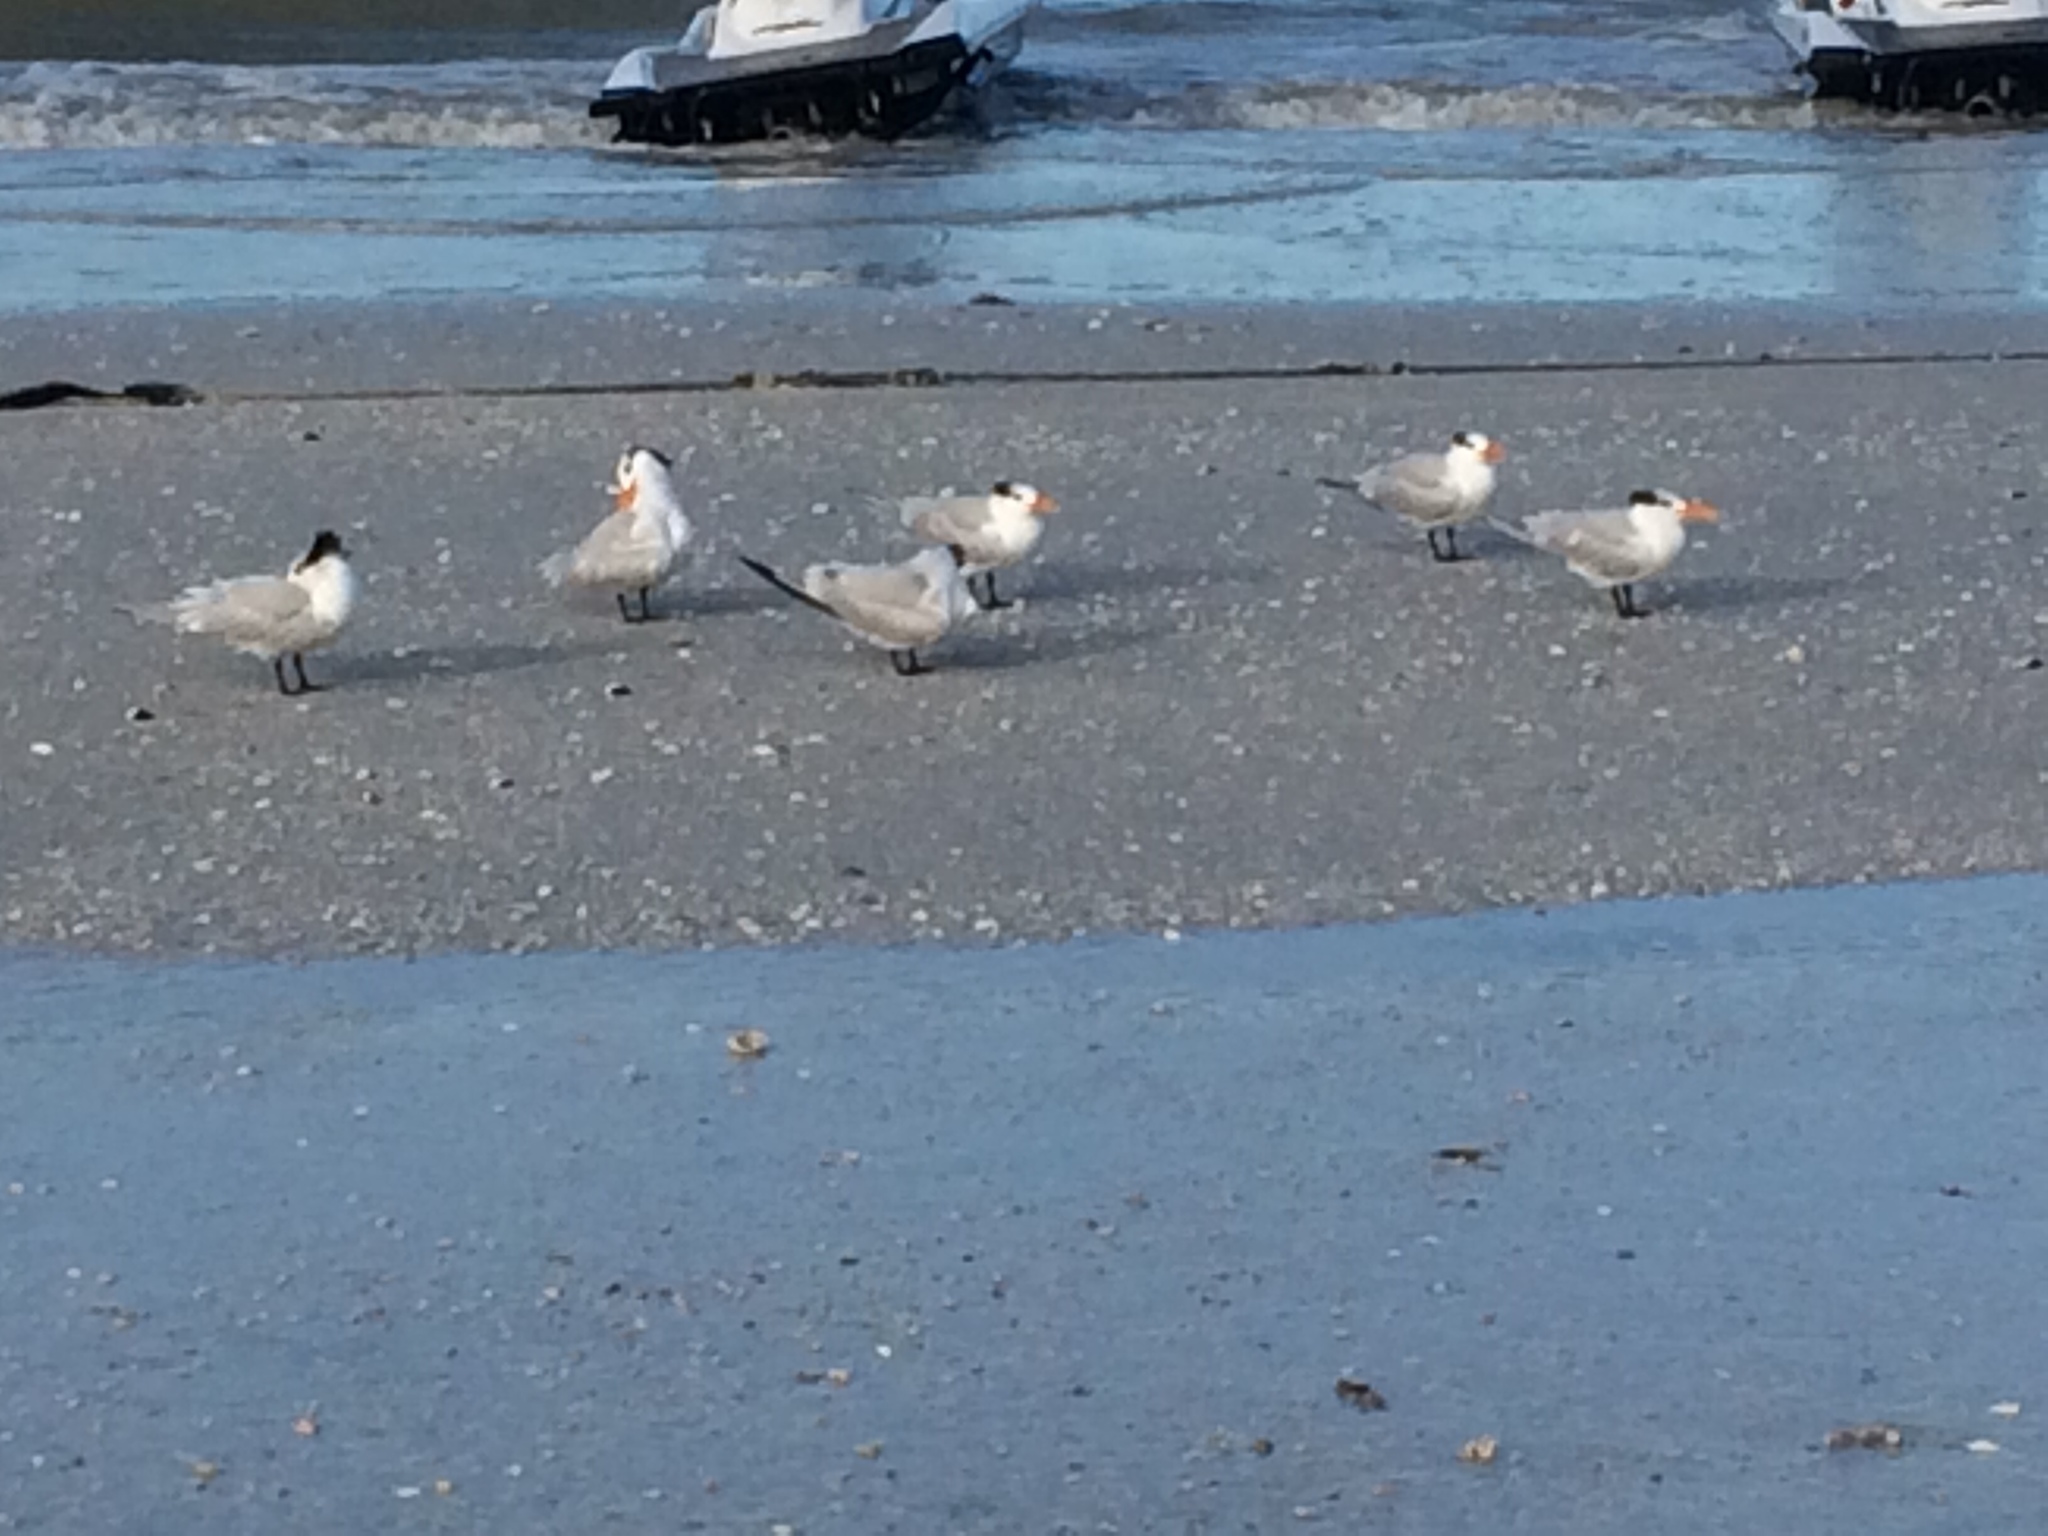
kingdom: Animalia
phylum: Chordata
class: Aves
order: Charadriiformes
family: Laridae
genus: Thalasseus
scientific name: Thalasseus maximus
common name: Royal tern
